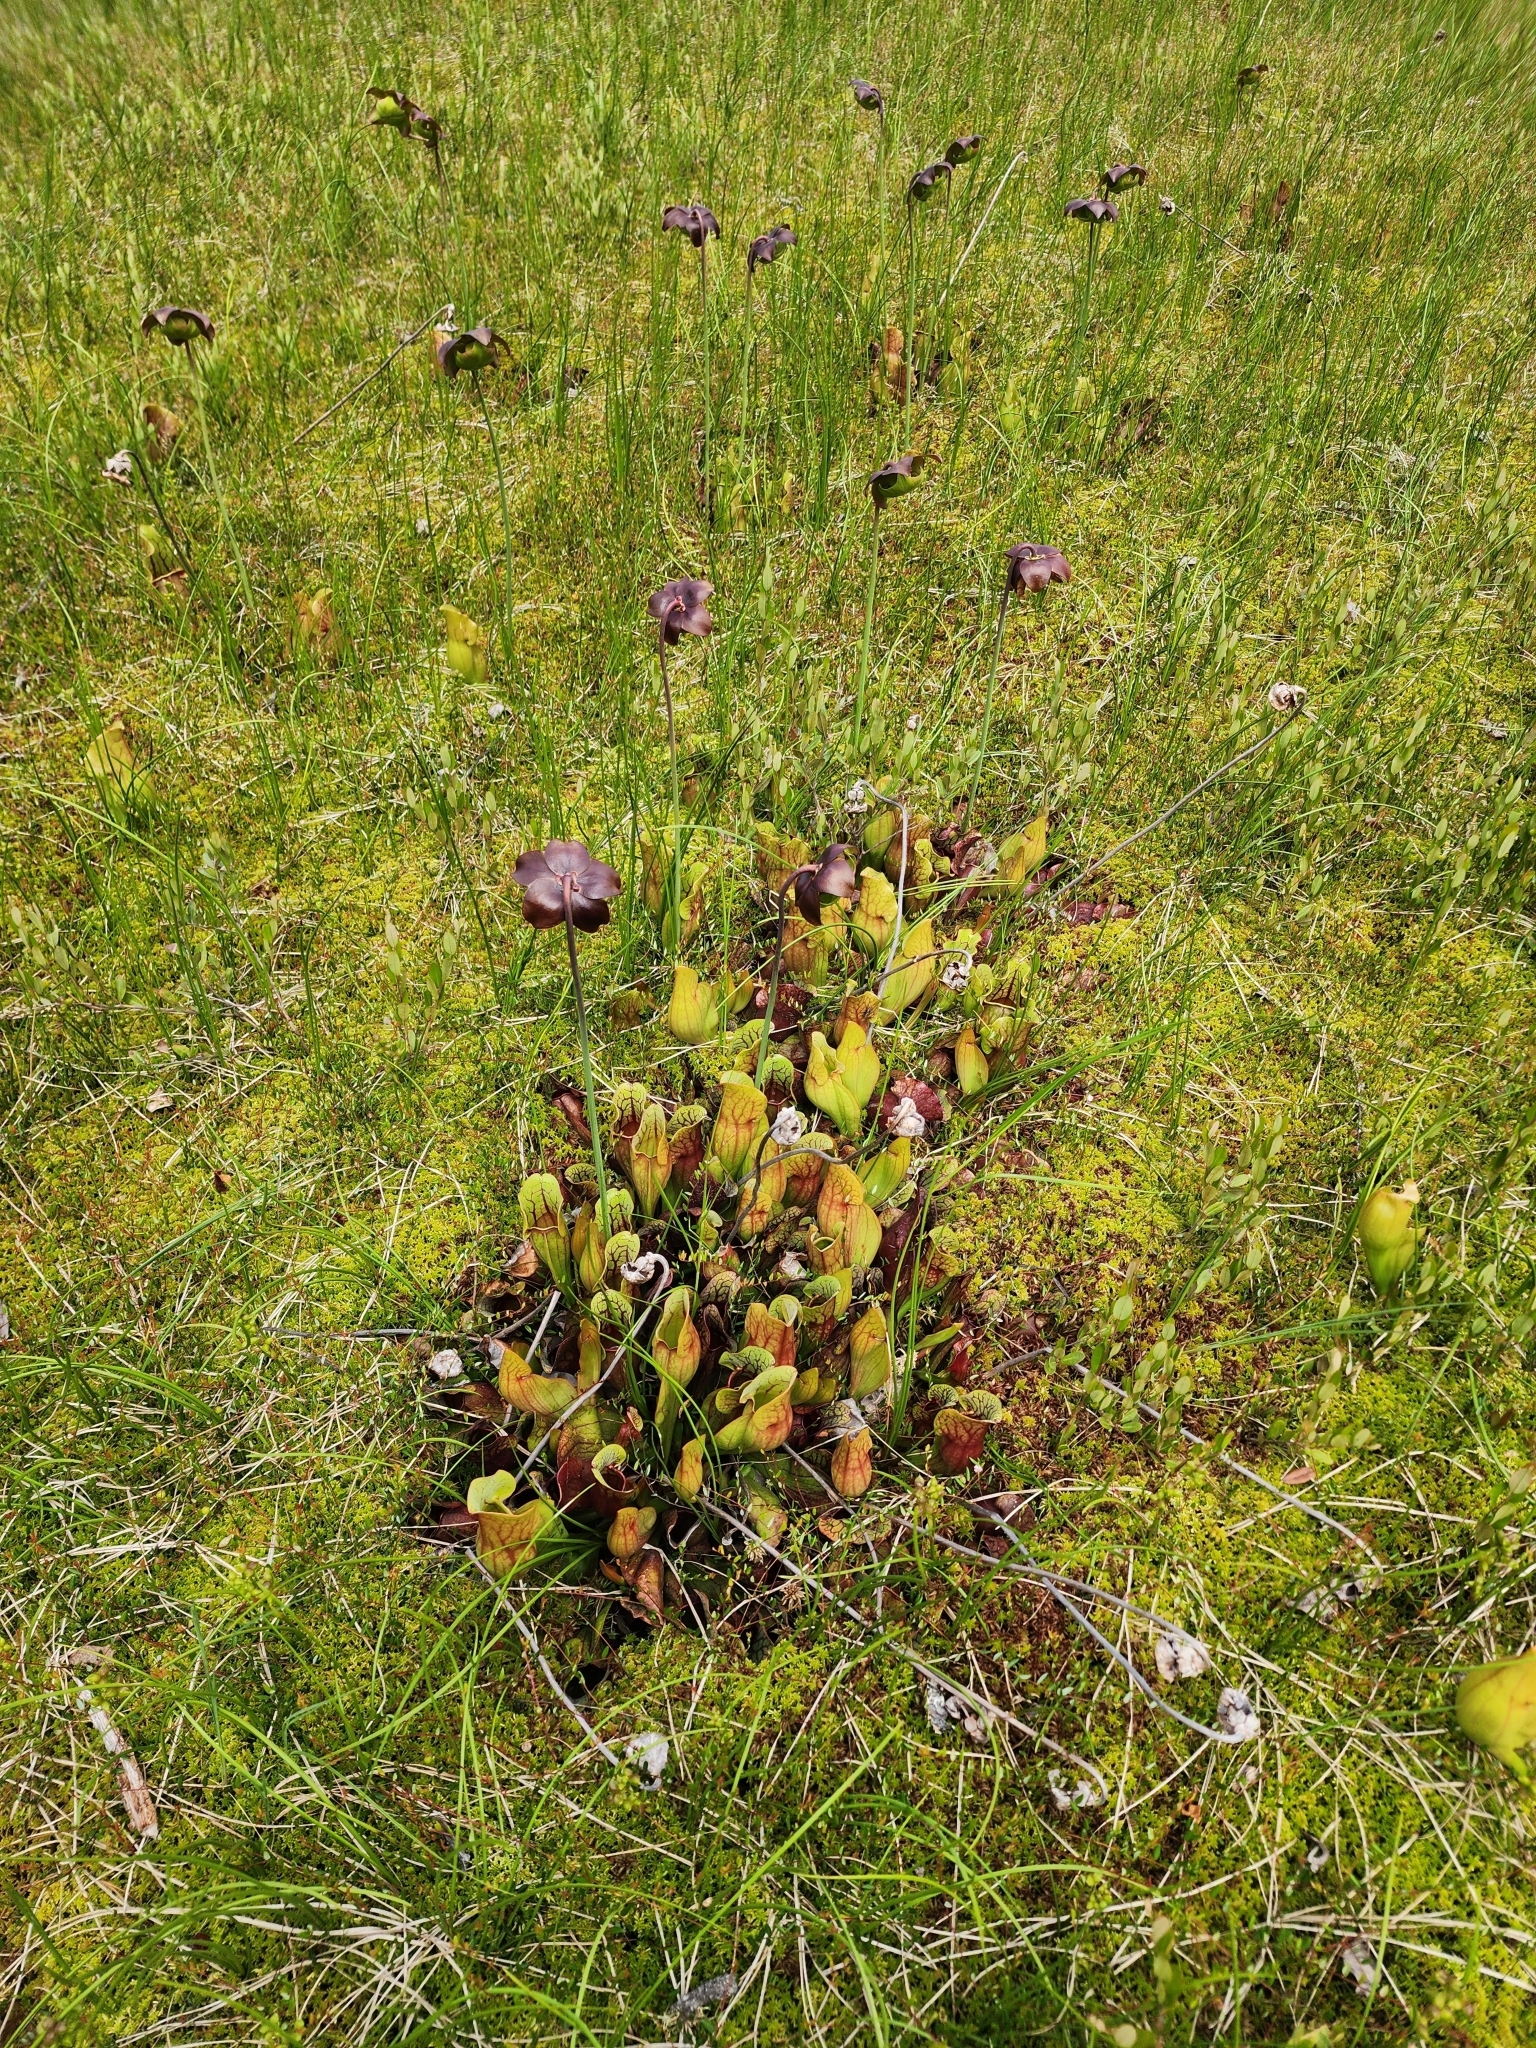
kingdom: Plantae
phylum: Tracheophyta
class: Magnoliopsida
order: Ericales
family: Sarraceniaceae
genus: Sarracenia
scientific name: Sarracenia purpurea
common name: Pitcherplant
